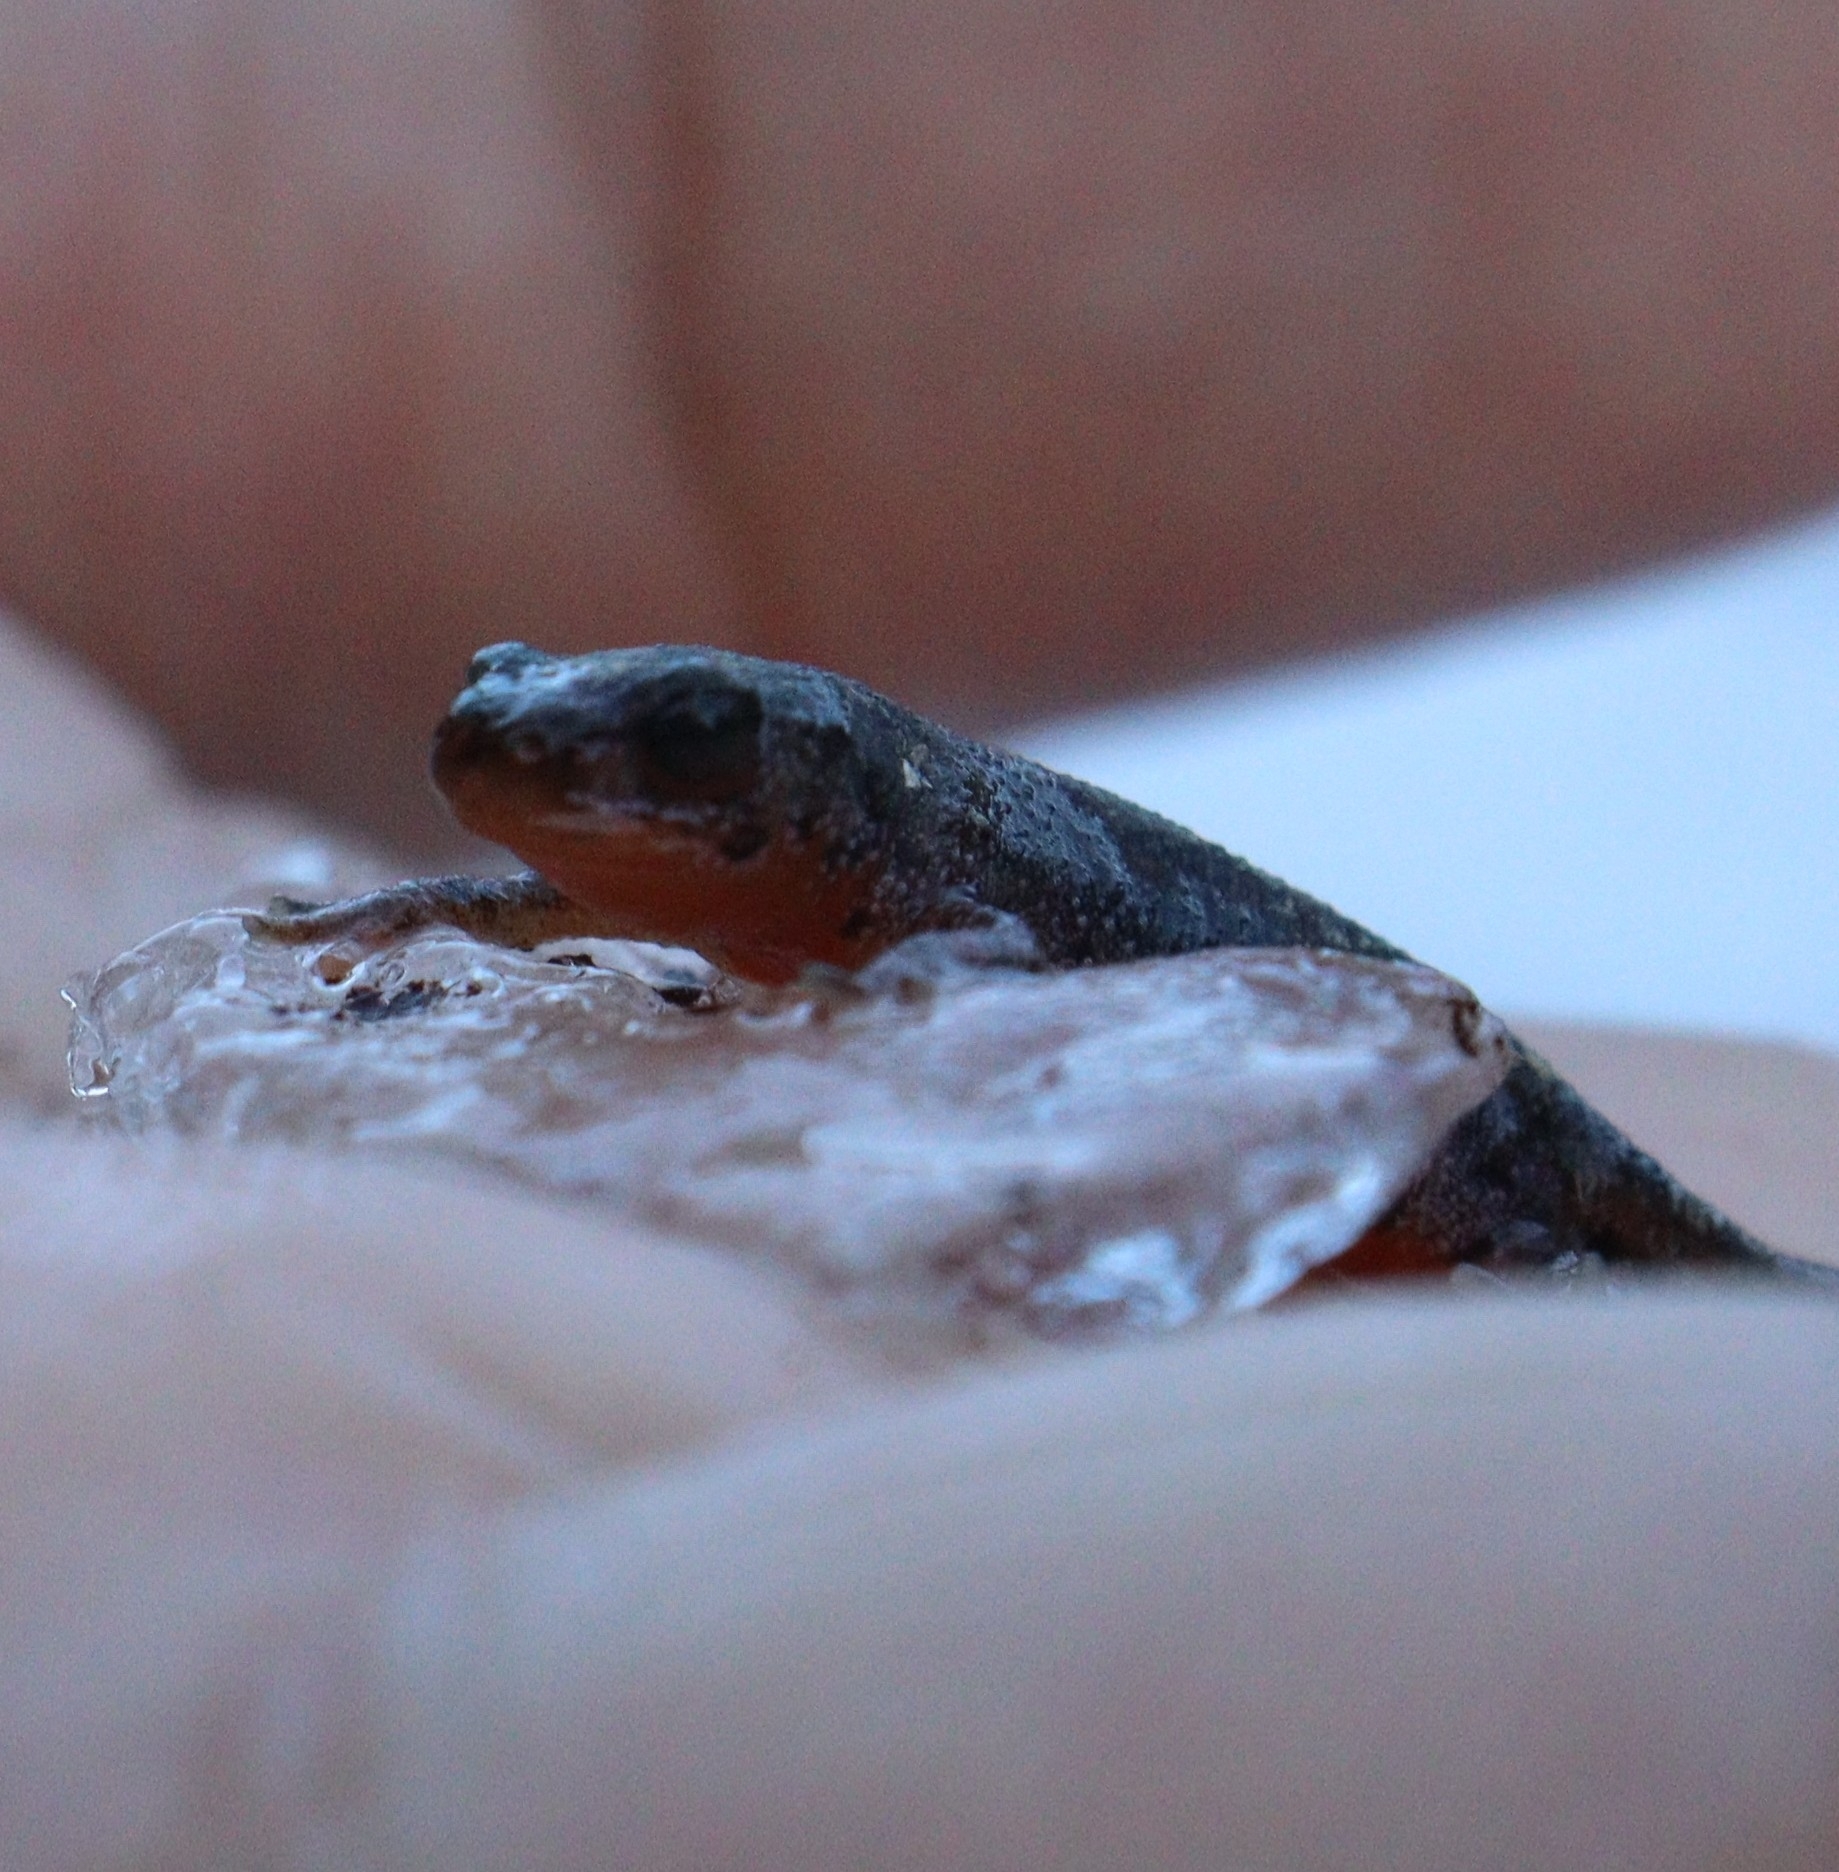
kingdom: Animalia
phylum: Chordata
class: Amphibia
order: Caudata
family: Salamandridae
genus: Ichthyosaura
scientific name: Ichthyosaura alpestris
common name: Alpine newt
